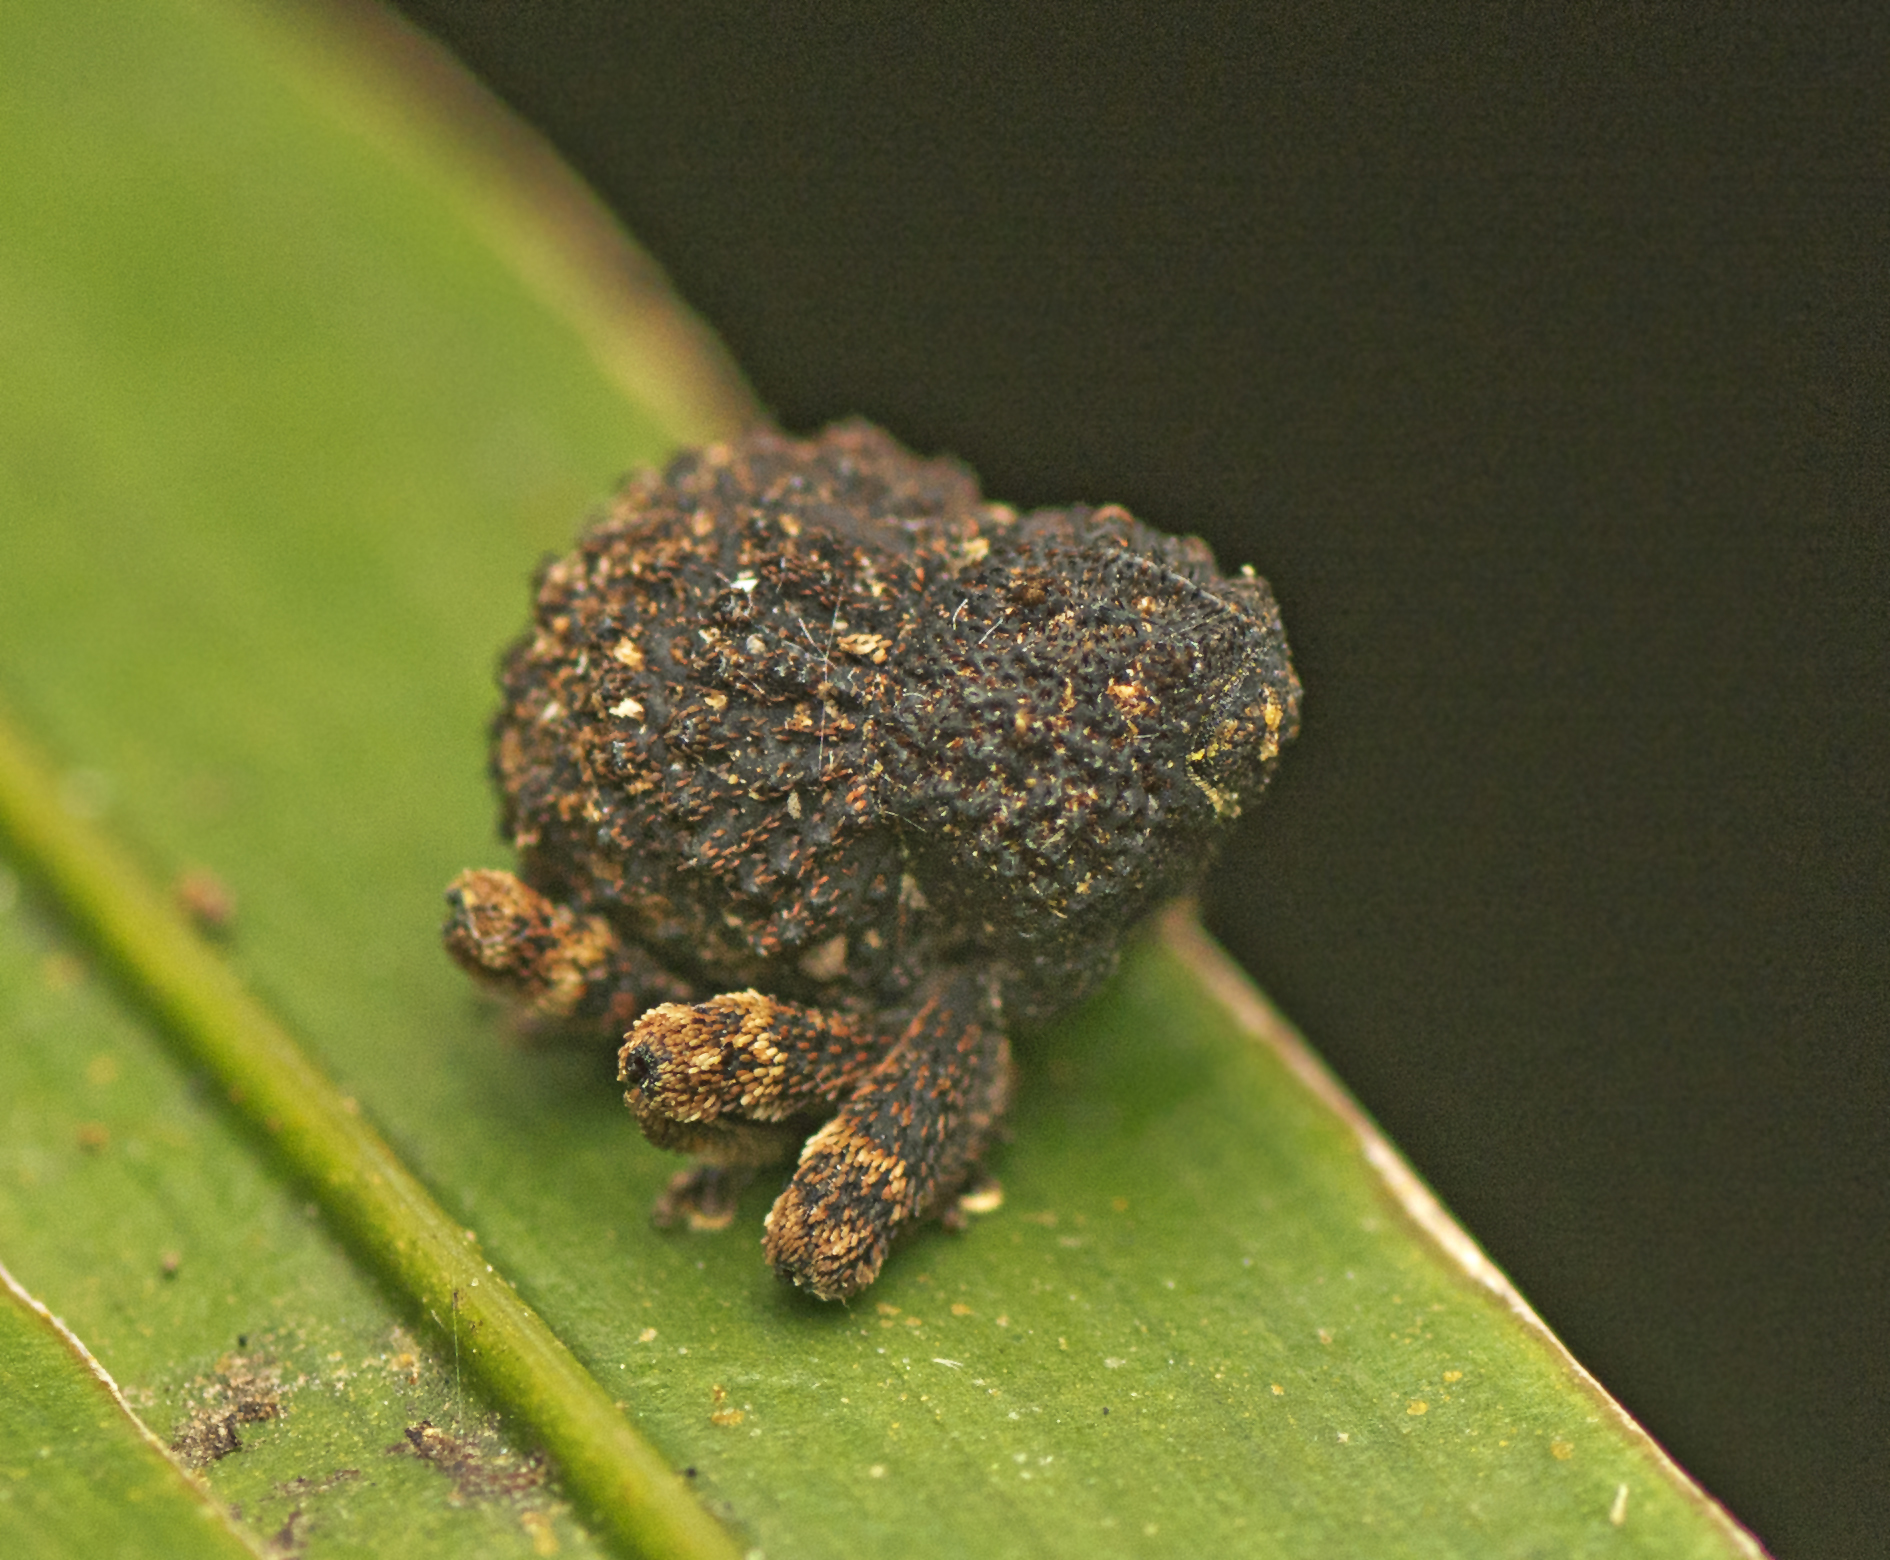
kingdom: Animalia
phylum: Arthropoda
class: Insecta
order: Coleoptera
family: Curculionidae
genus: Myrtesis
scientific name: Myrtesis caligata
